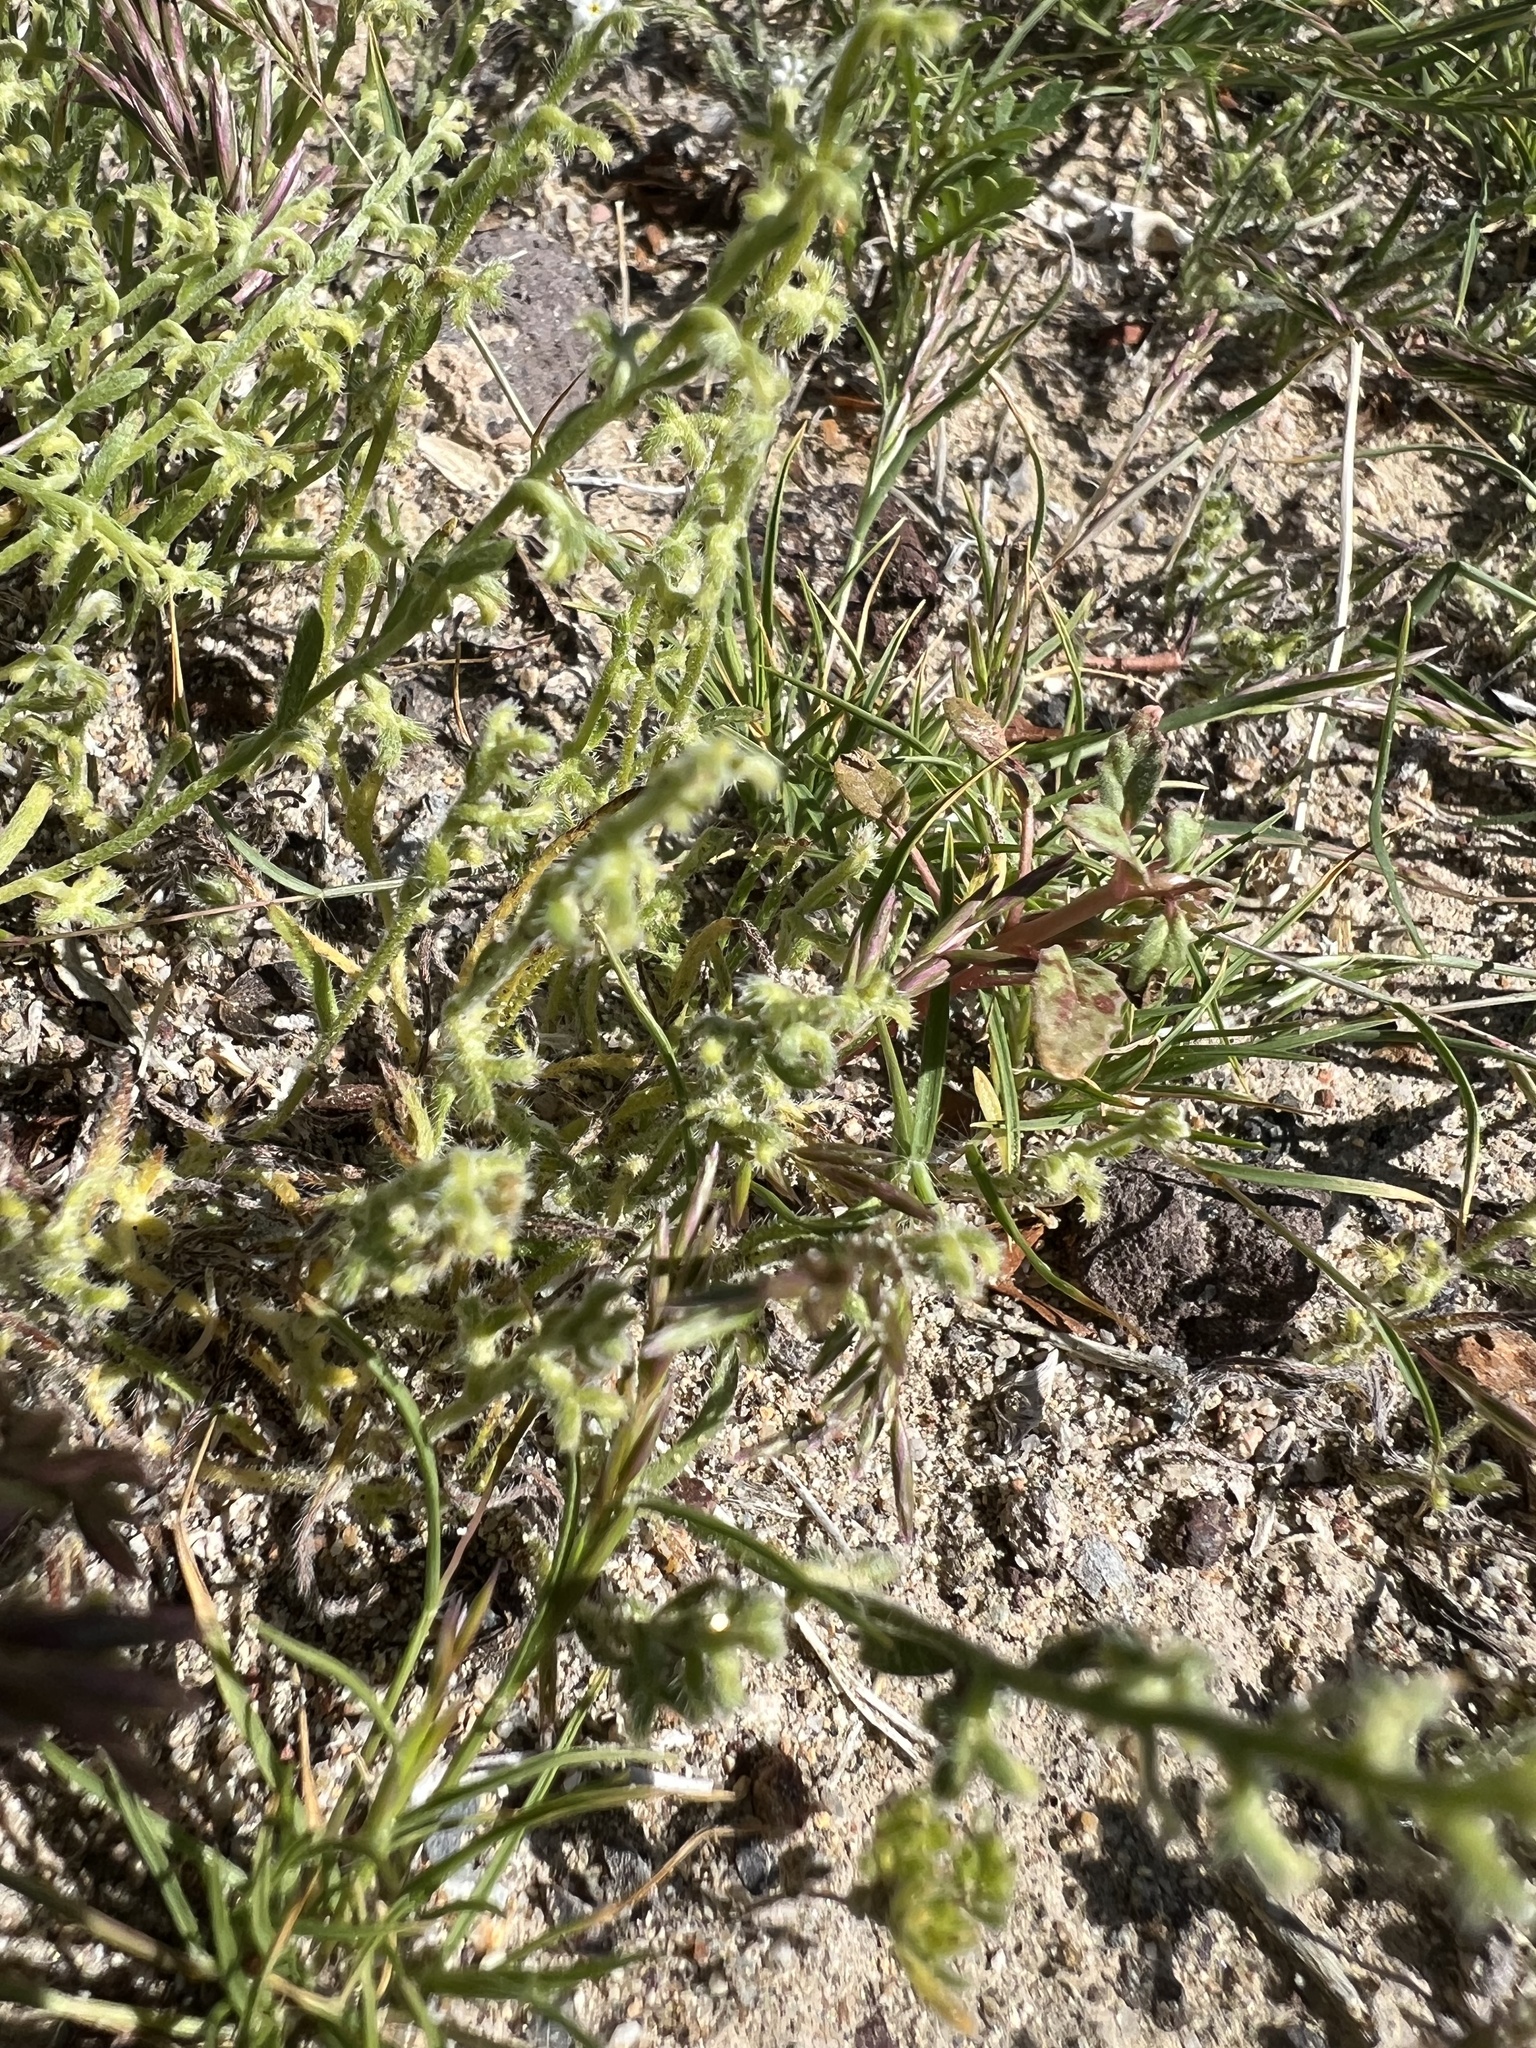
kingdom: Plantae
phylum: Tracheophyta
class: Magnoliopsida
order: Boraginales
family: Boraginaceae
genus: Pectocarya
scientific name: Pectocarya heterocarpa
